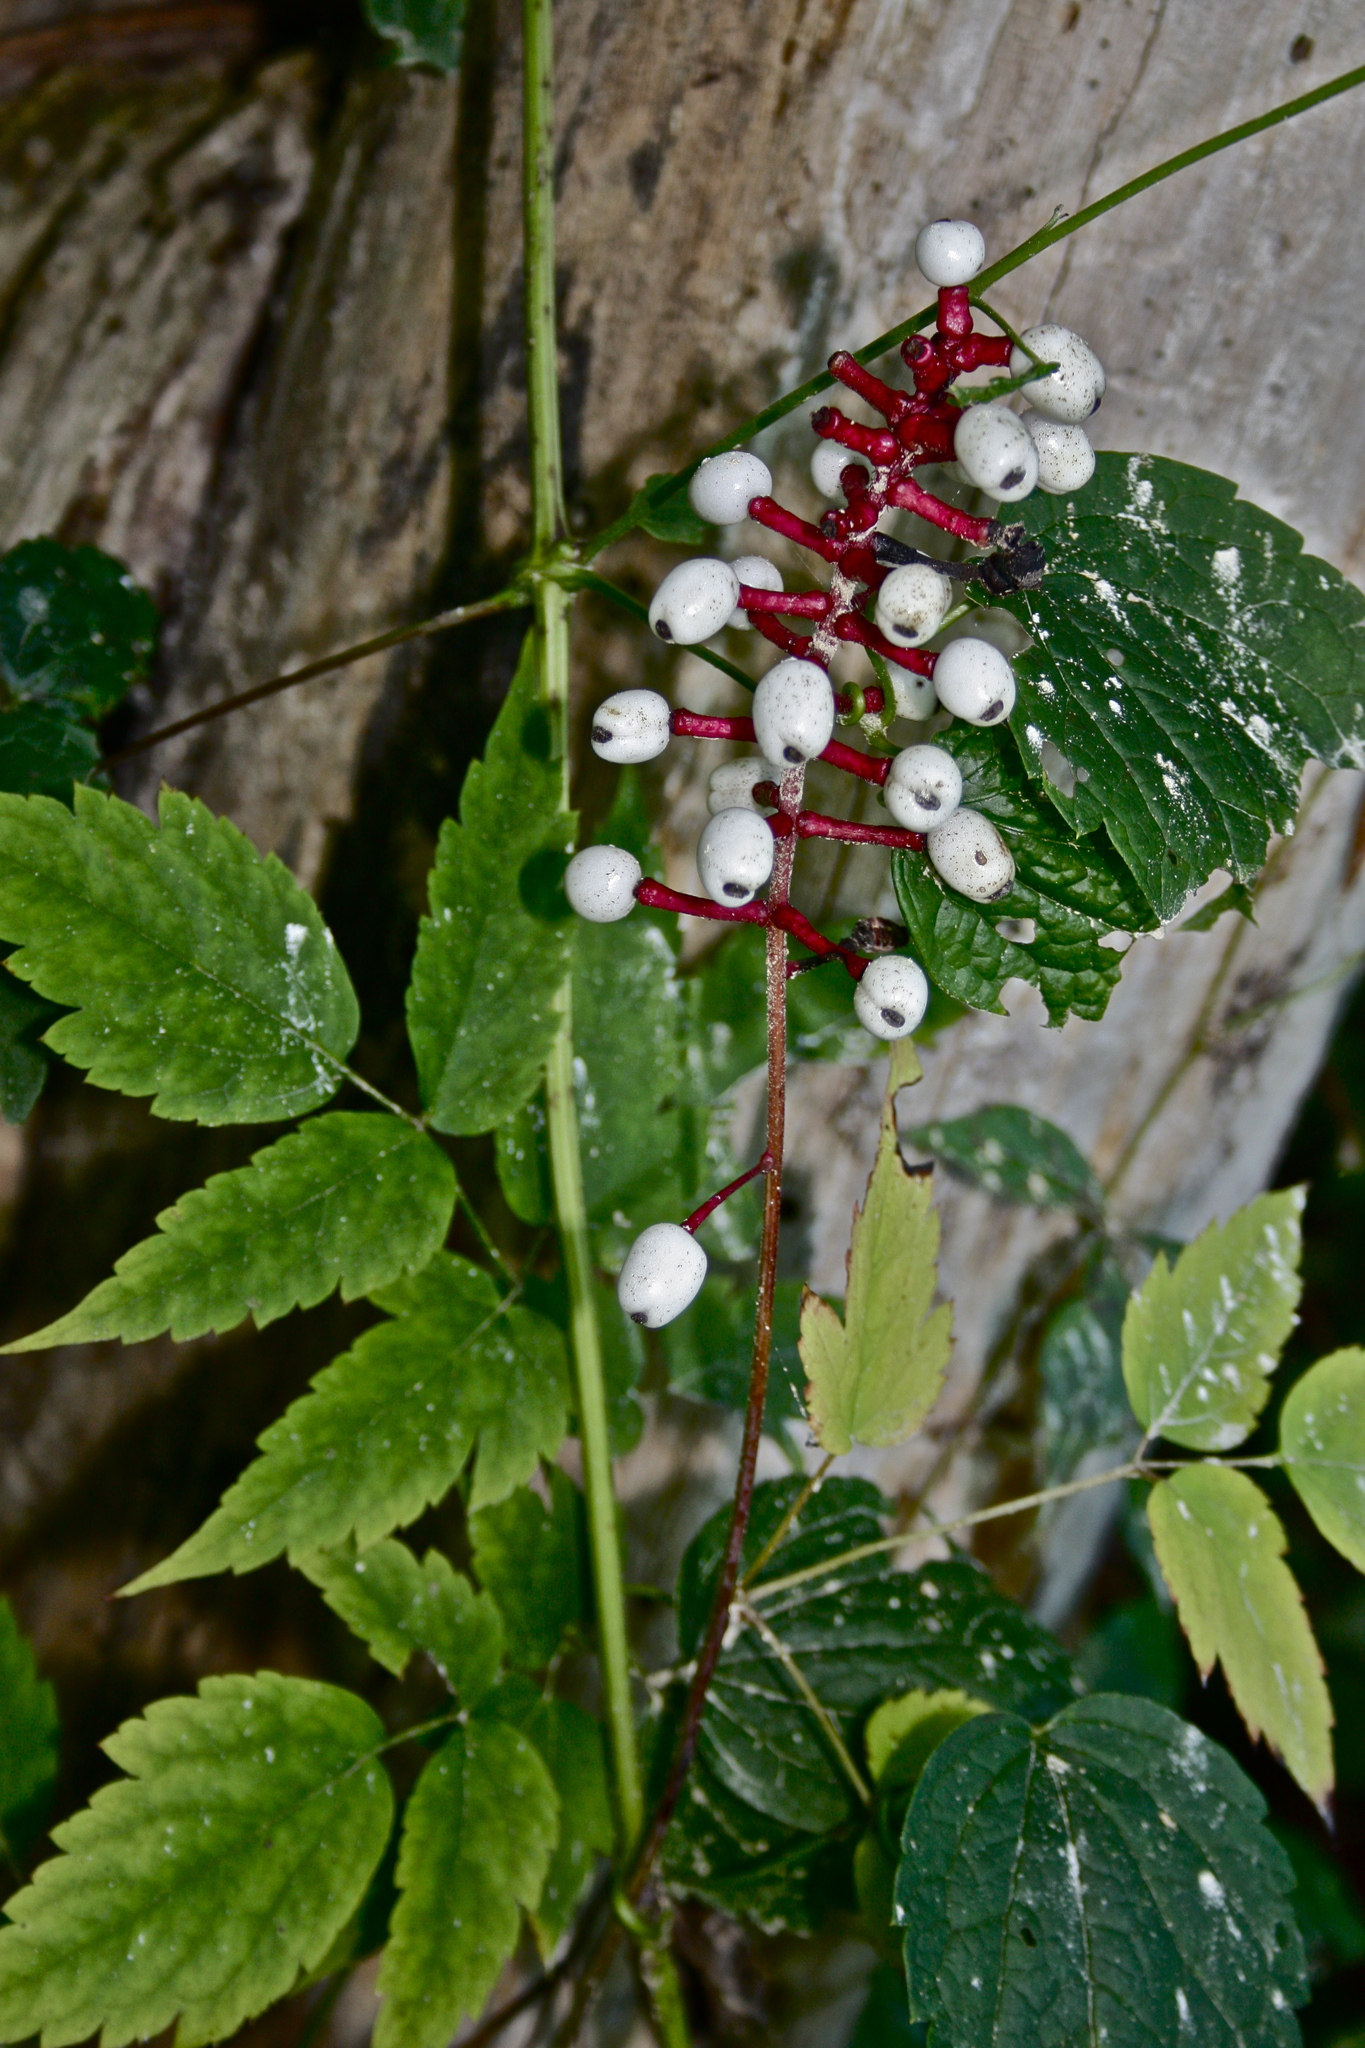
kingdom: Plantae
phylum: Tracheophyta
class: Magnoliopsida
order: Ranunculales
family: Ranunculaceae
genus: Actaea
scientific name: Actaea pachypoda
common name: Doll's-eyes
